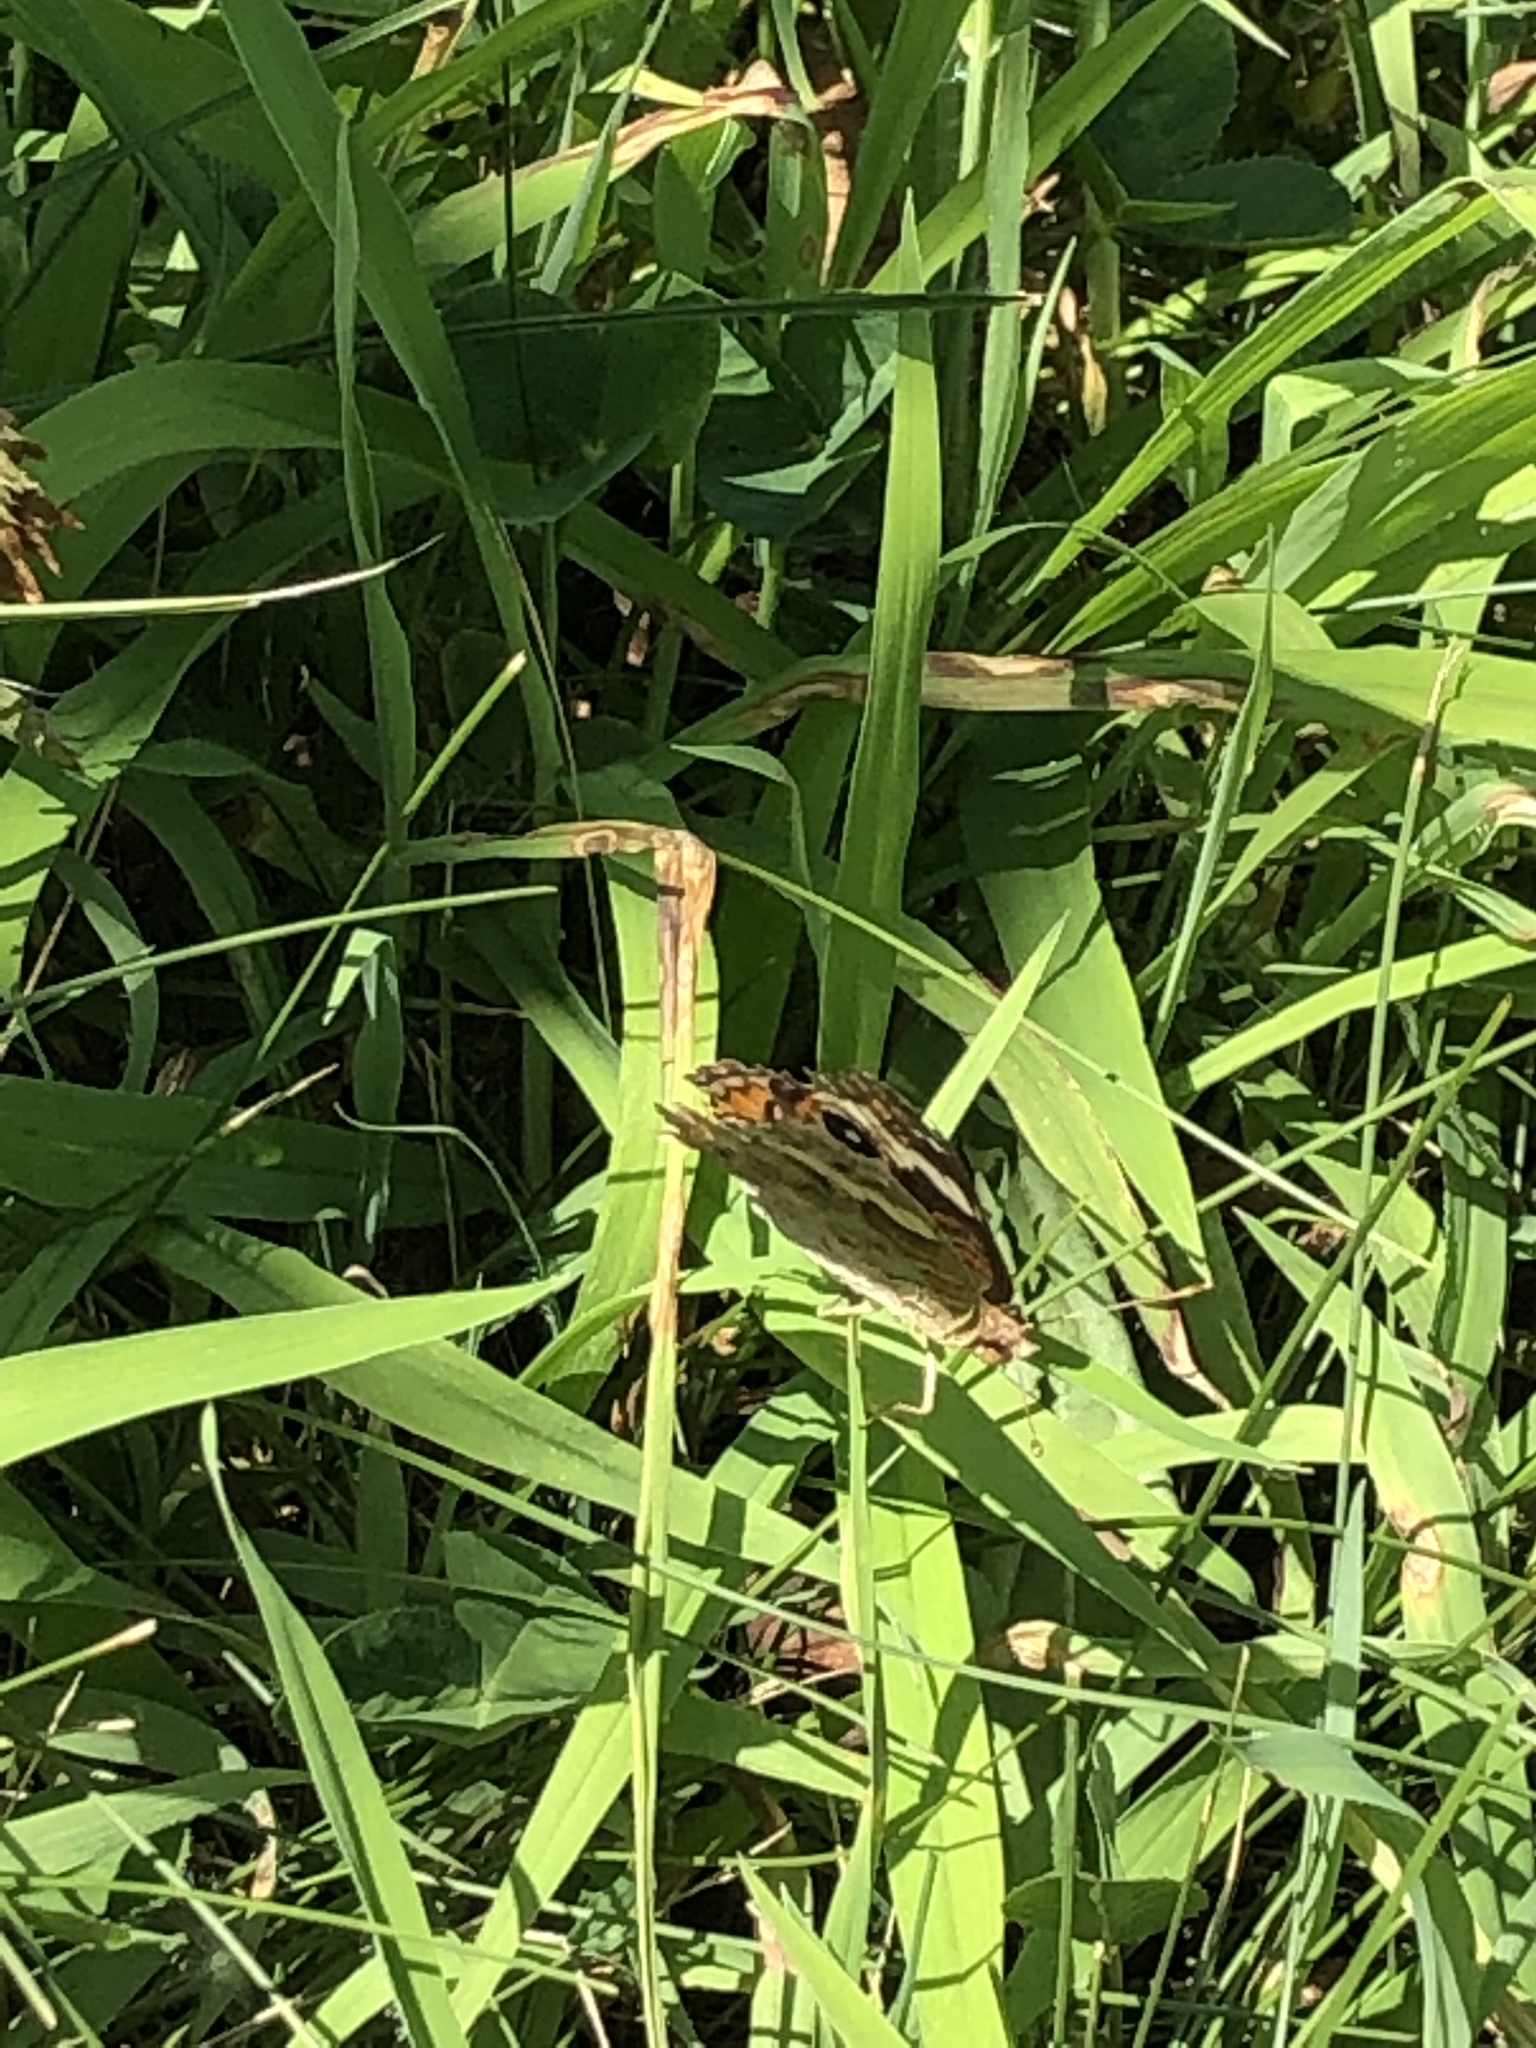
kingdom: Animalia
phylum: Arthropoda
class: Insecta
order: Lepidoptera
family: Nymphalidae
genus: Junonia
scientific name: Junonia coenia
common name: Common buckeye
